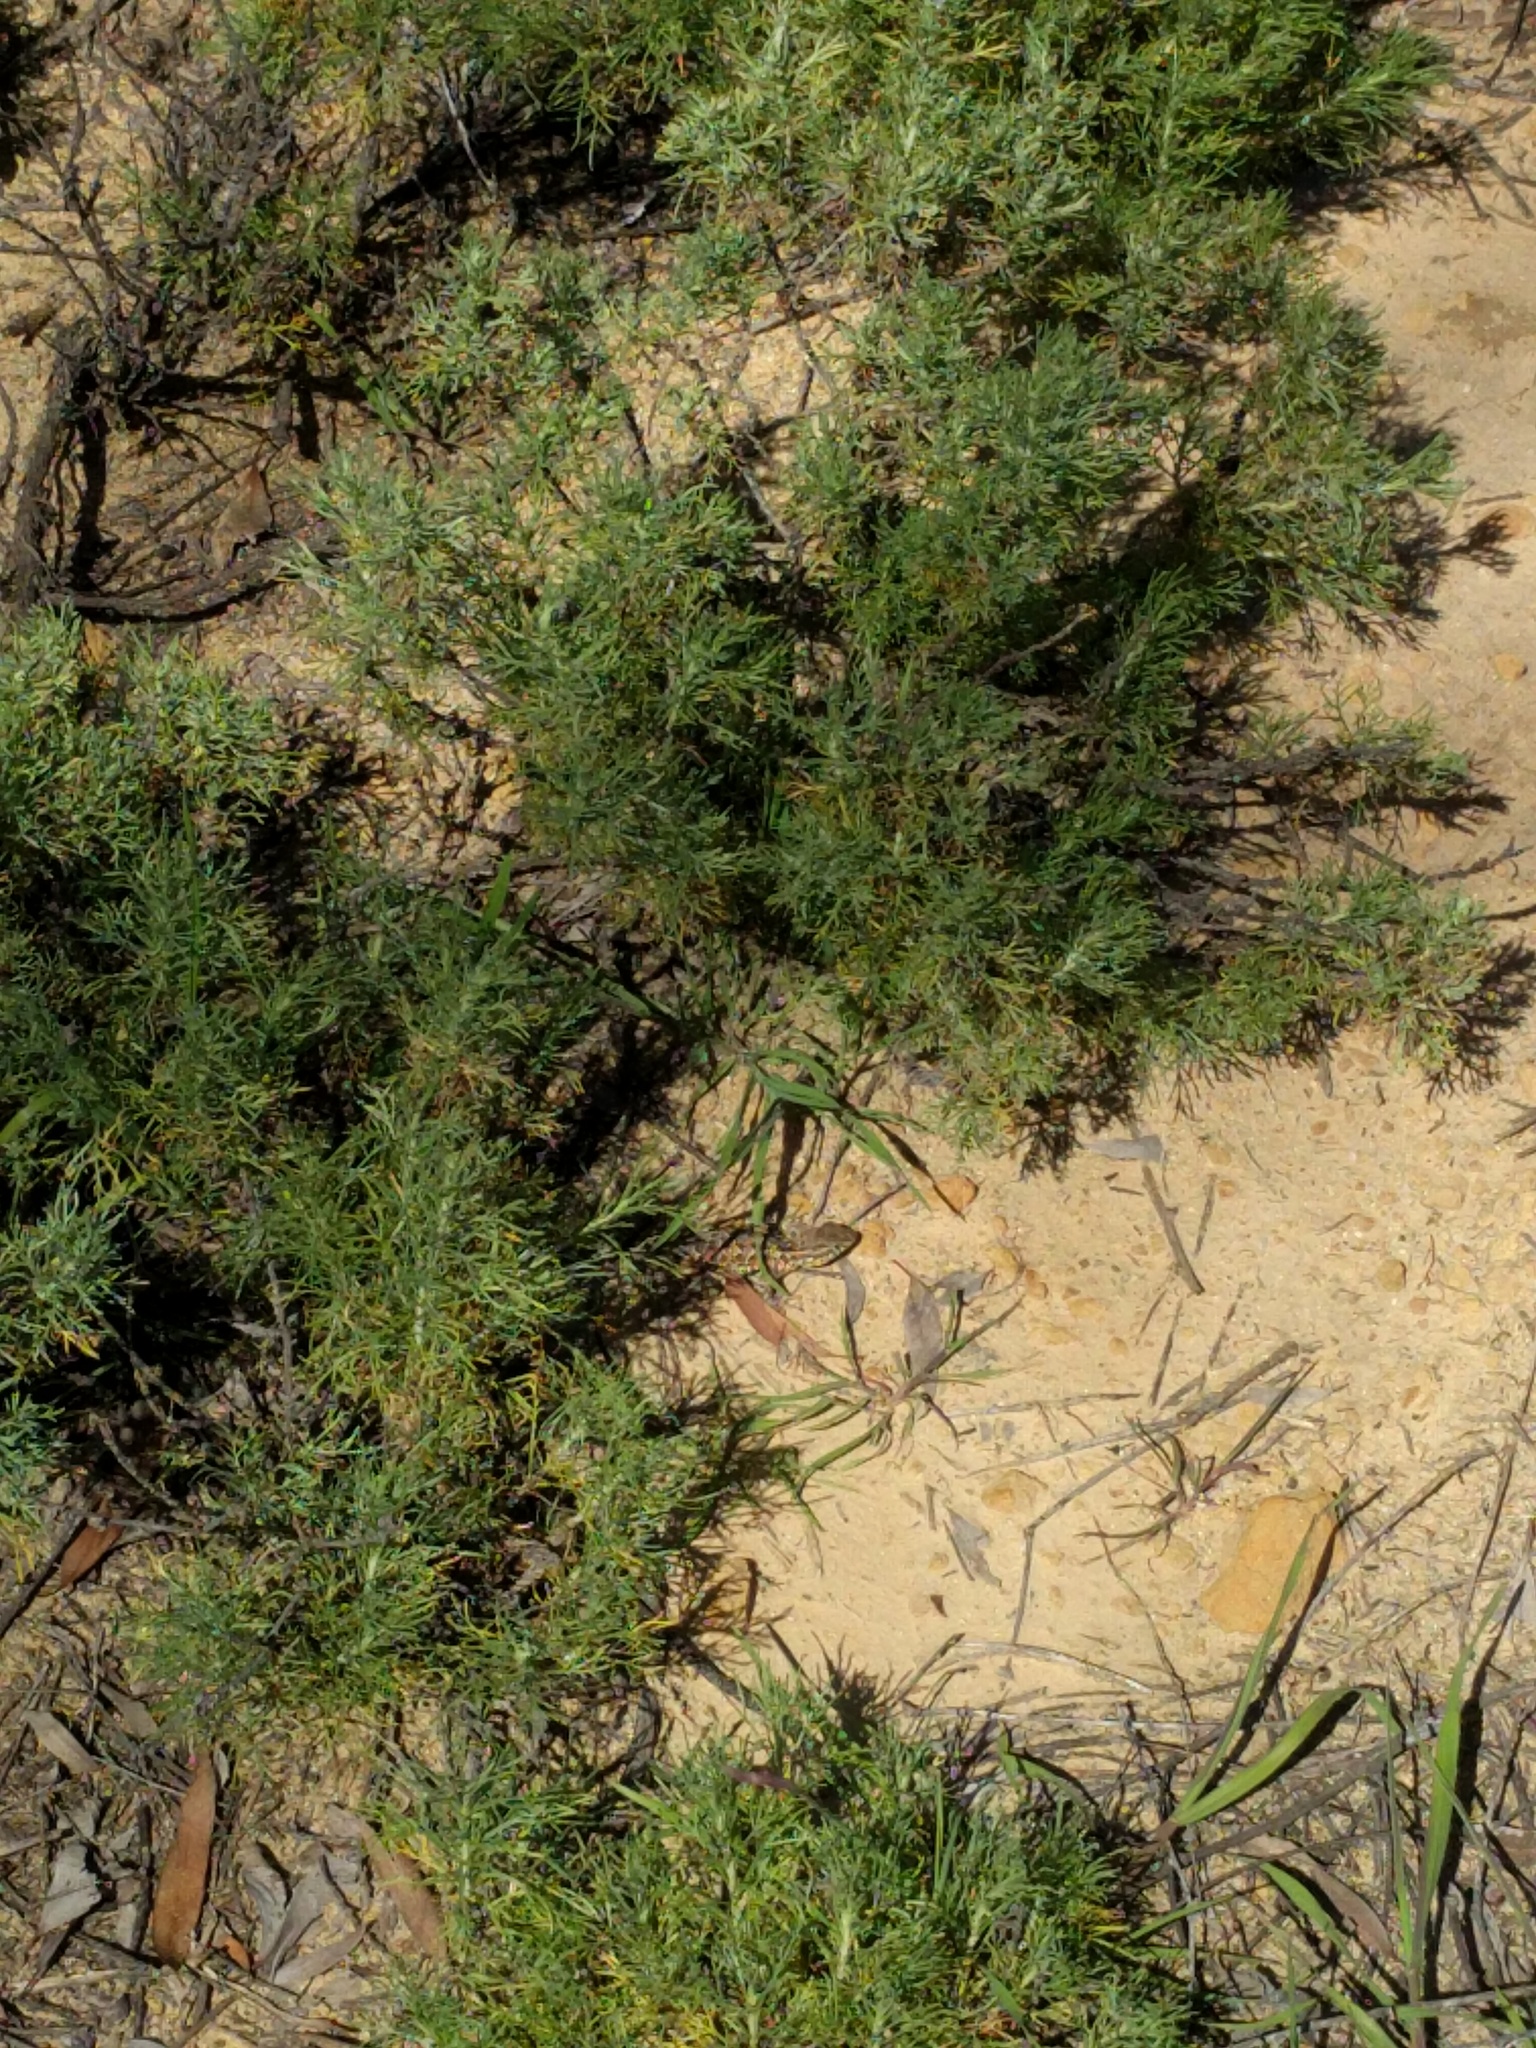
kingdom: Animalia
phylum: Chordata
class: Squamata
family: Phrynosomatidae
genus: Uta
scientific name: Uta stansburiana
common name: Side-blotched lizard
